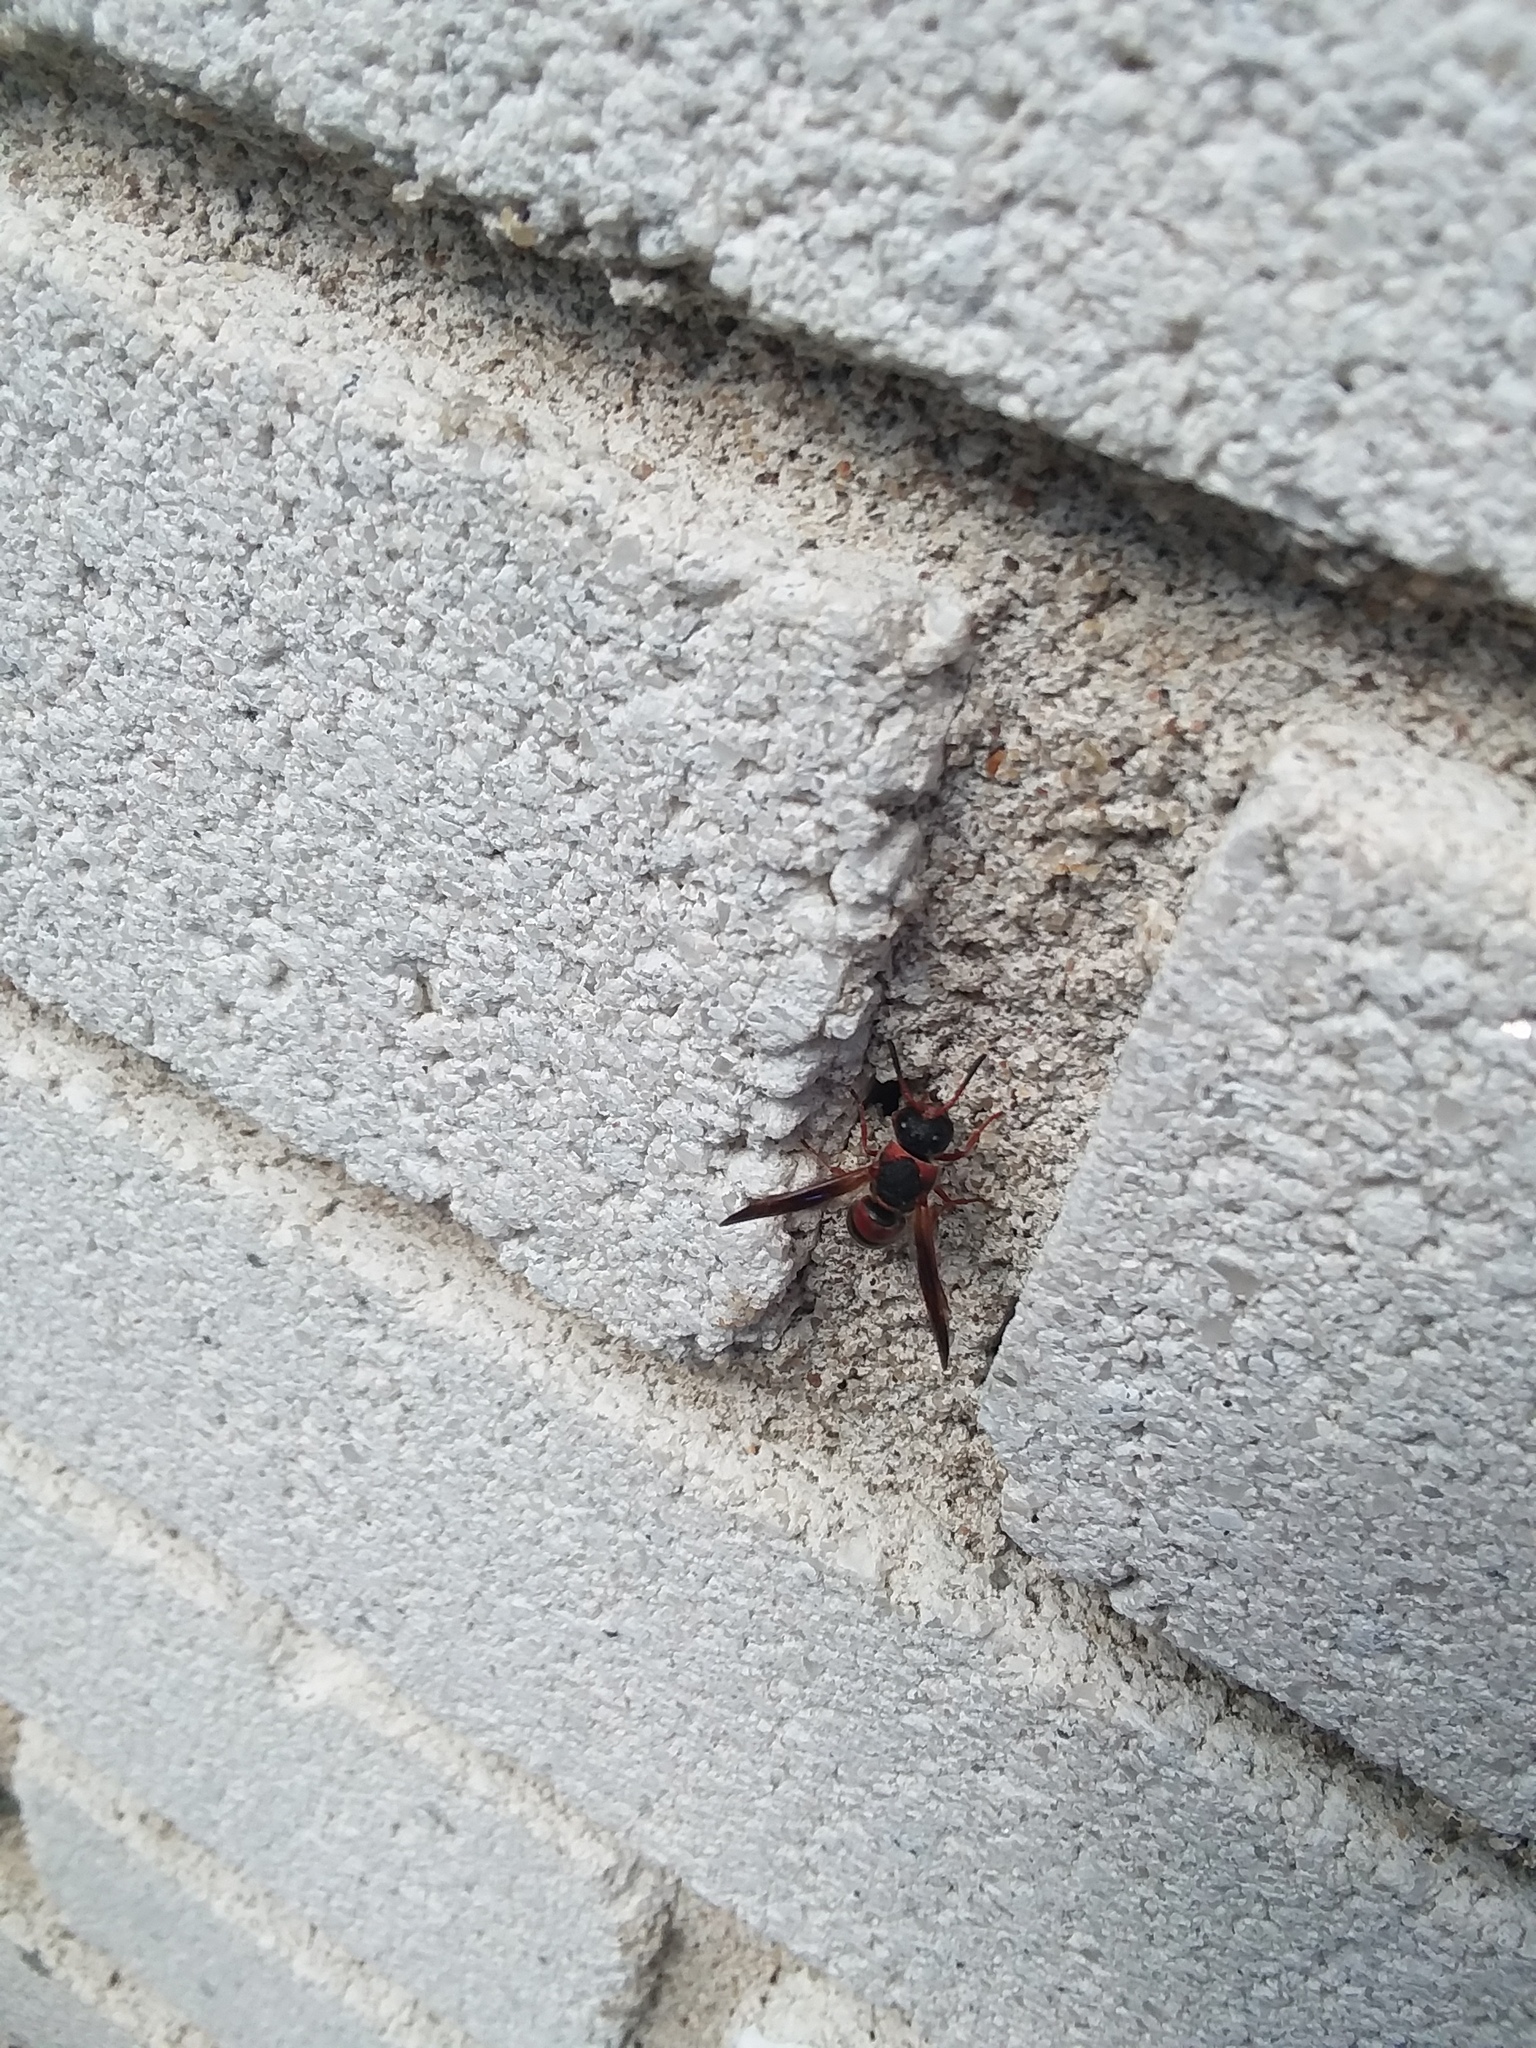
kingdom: Animalia
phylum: Arthropoda
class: Insecta
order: Hymenoptera
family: Eumenidae
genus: Pachodynerus
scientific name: Pachodynerus erynnis
